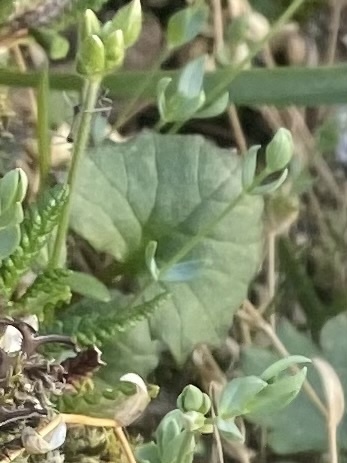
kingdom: Plantae
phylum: Tracheophyta
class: Magnoliopsida
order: Asterales
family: Asteraceae
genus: Endocellion
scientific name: Endocellion glaciale
